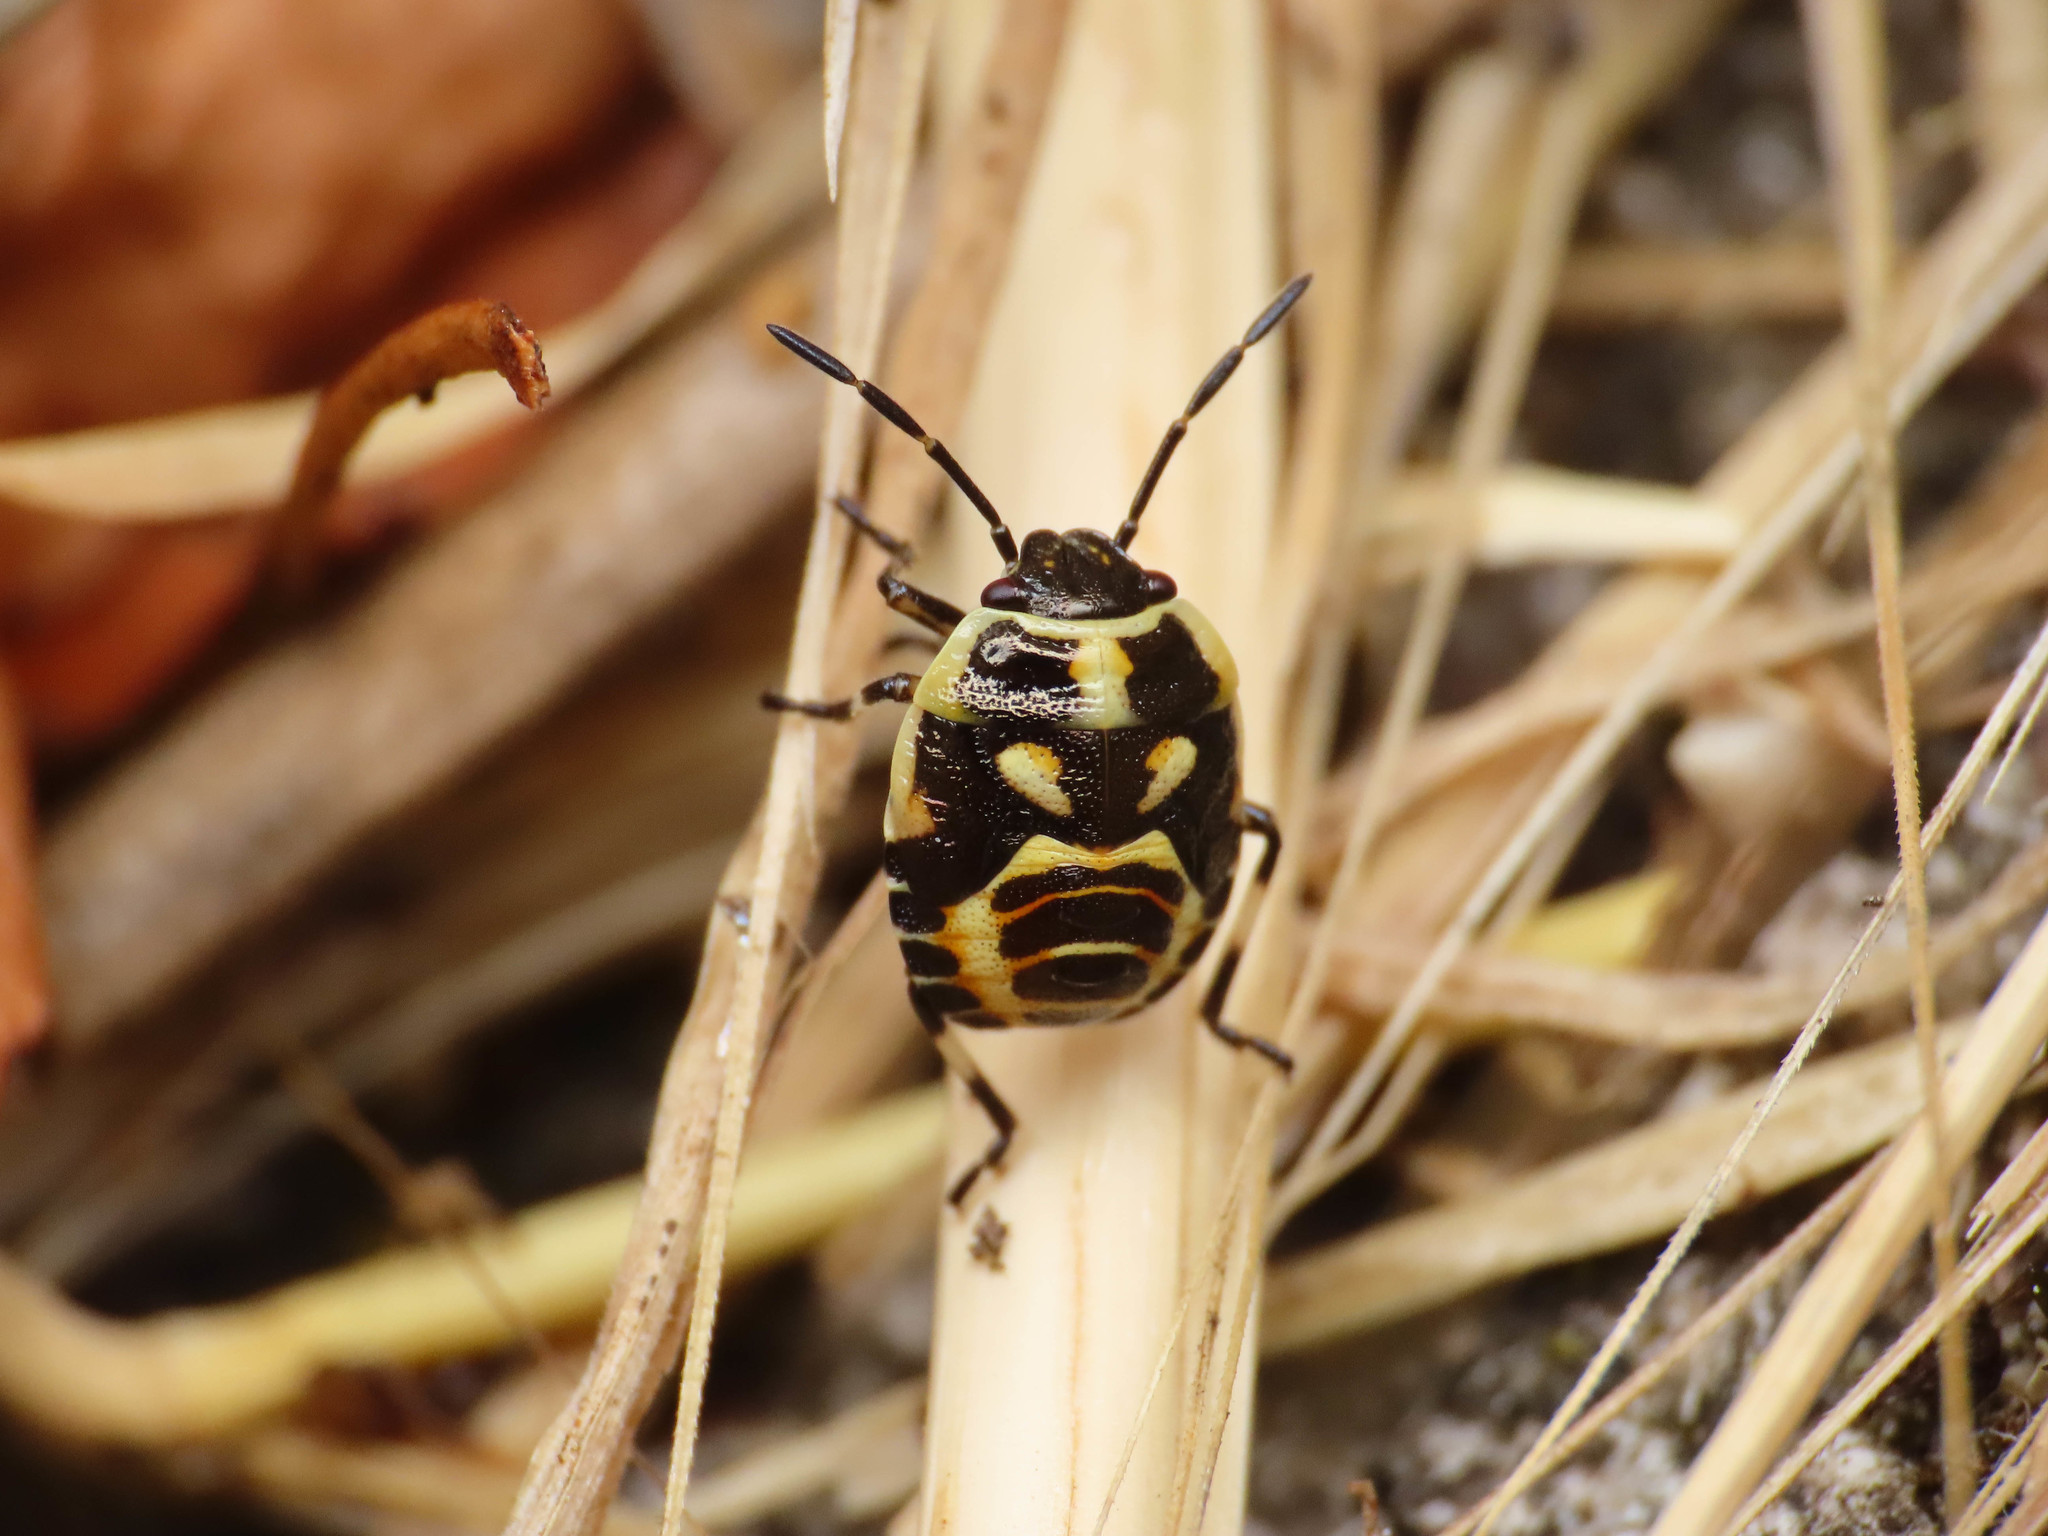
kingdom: Animalia
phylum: Arthropoda
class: Insecta
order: Hemiptera
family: Pentatomidae
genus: Eurydema
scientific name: Eurydema oleracea
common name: Cabbage bug
